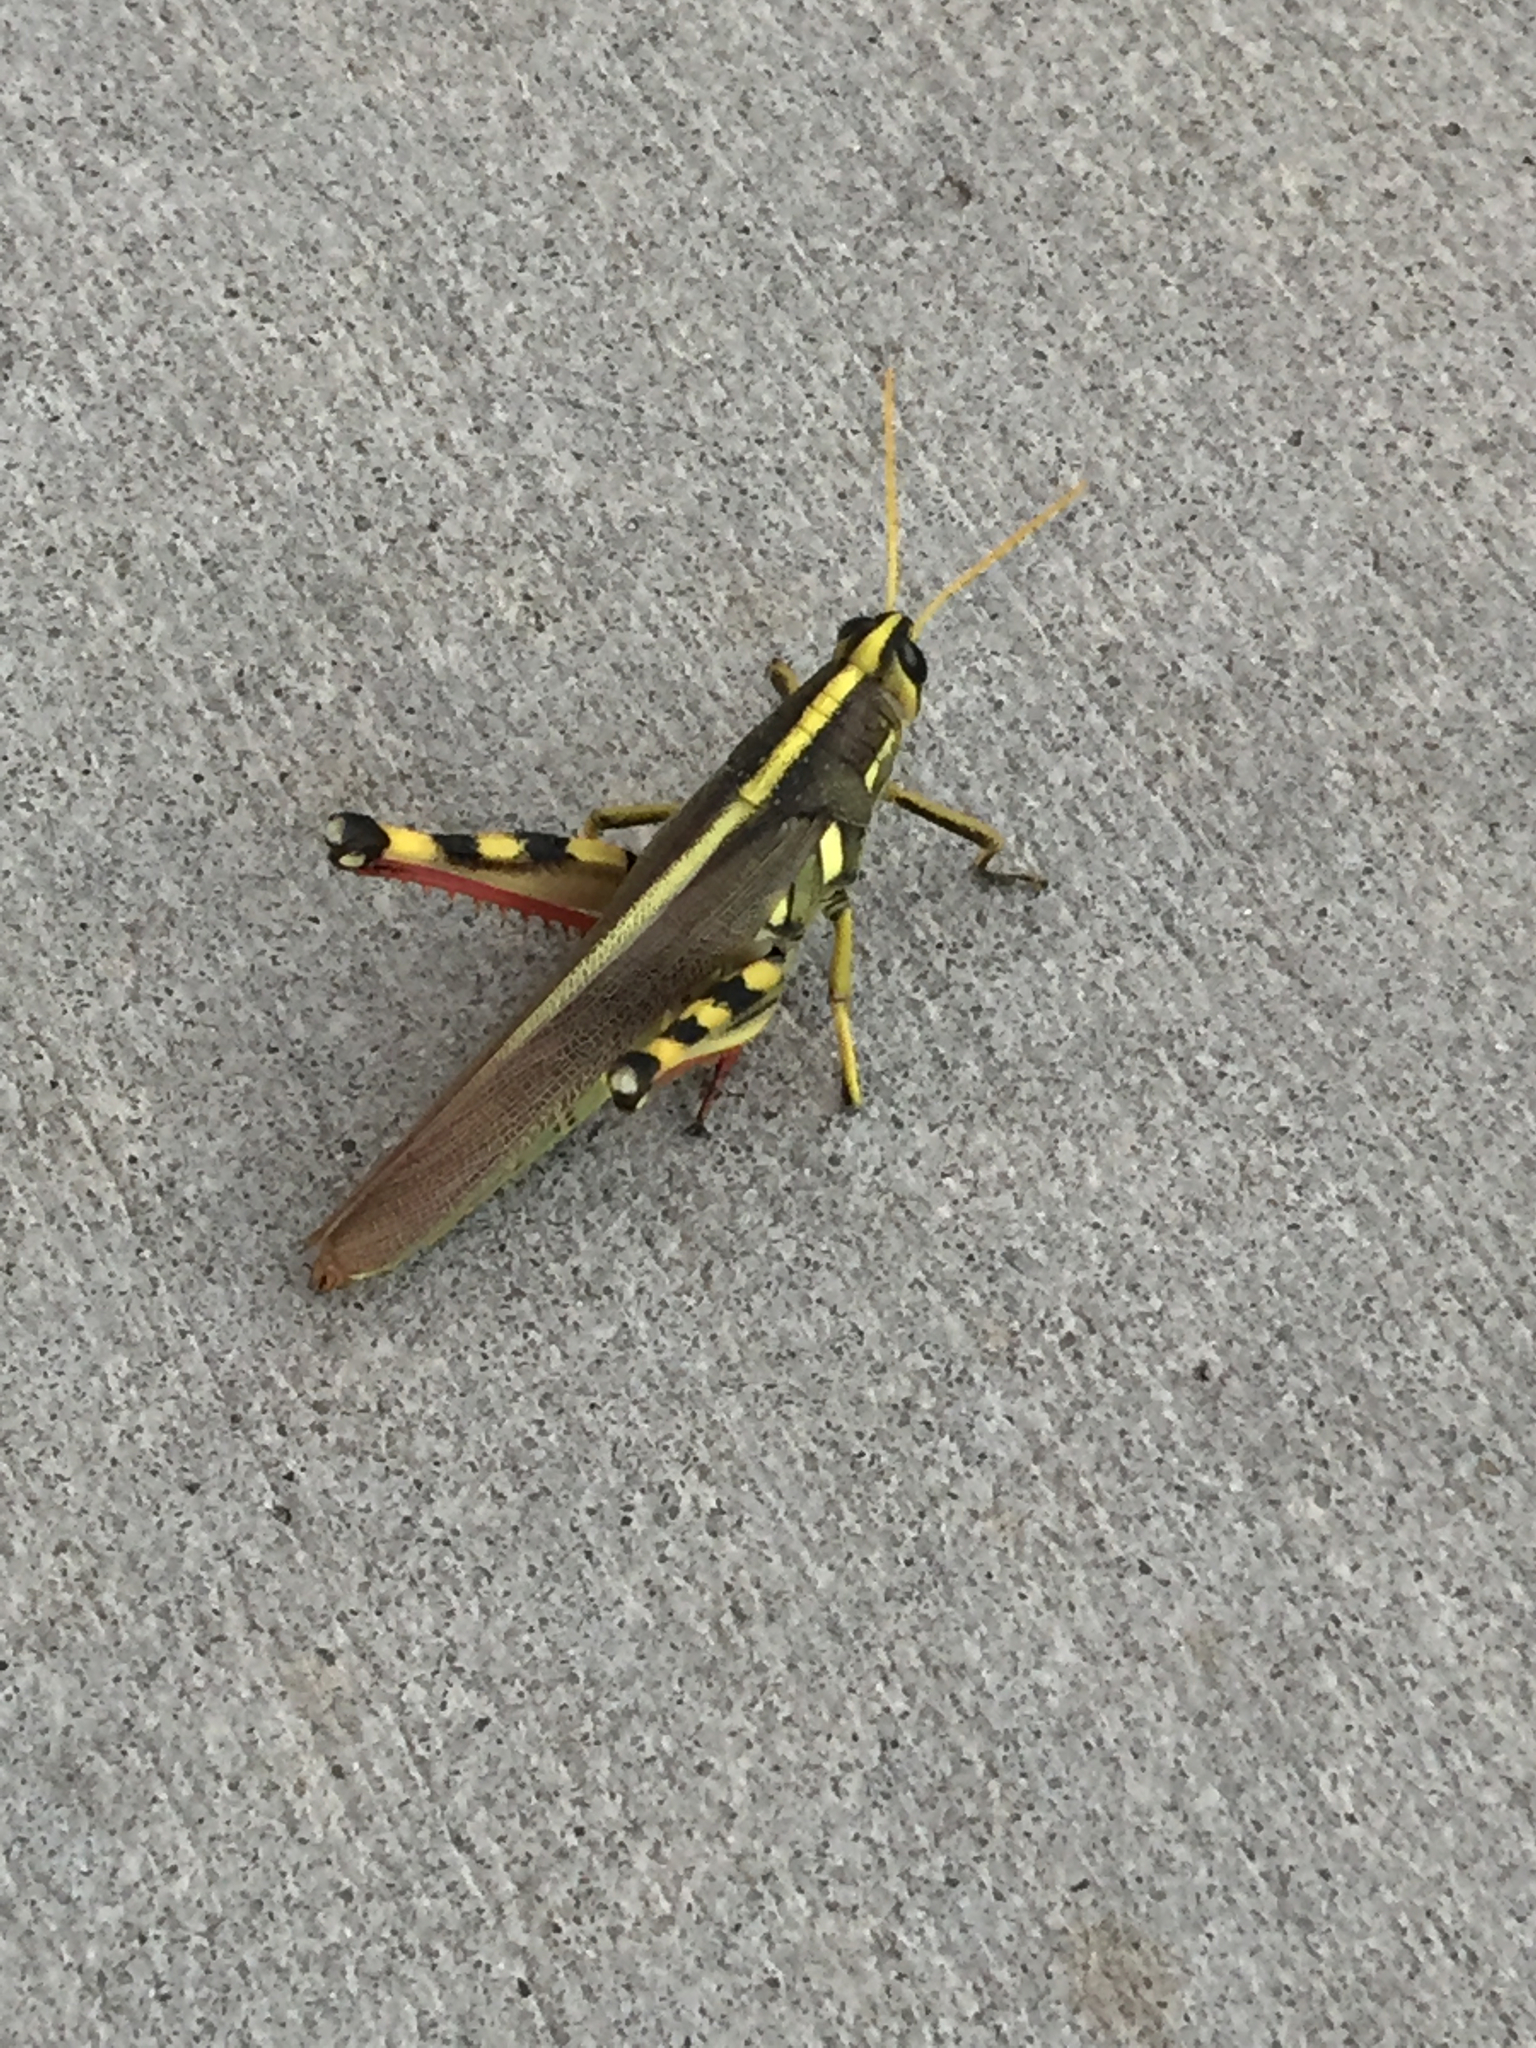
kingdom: Animalia
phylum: Arthropoda
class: Insecta
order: Orthoptera
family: Acrididae
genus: Schistocerca
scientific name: Schistocerca albolineata
